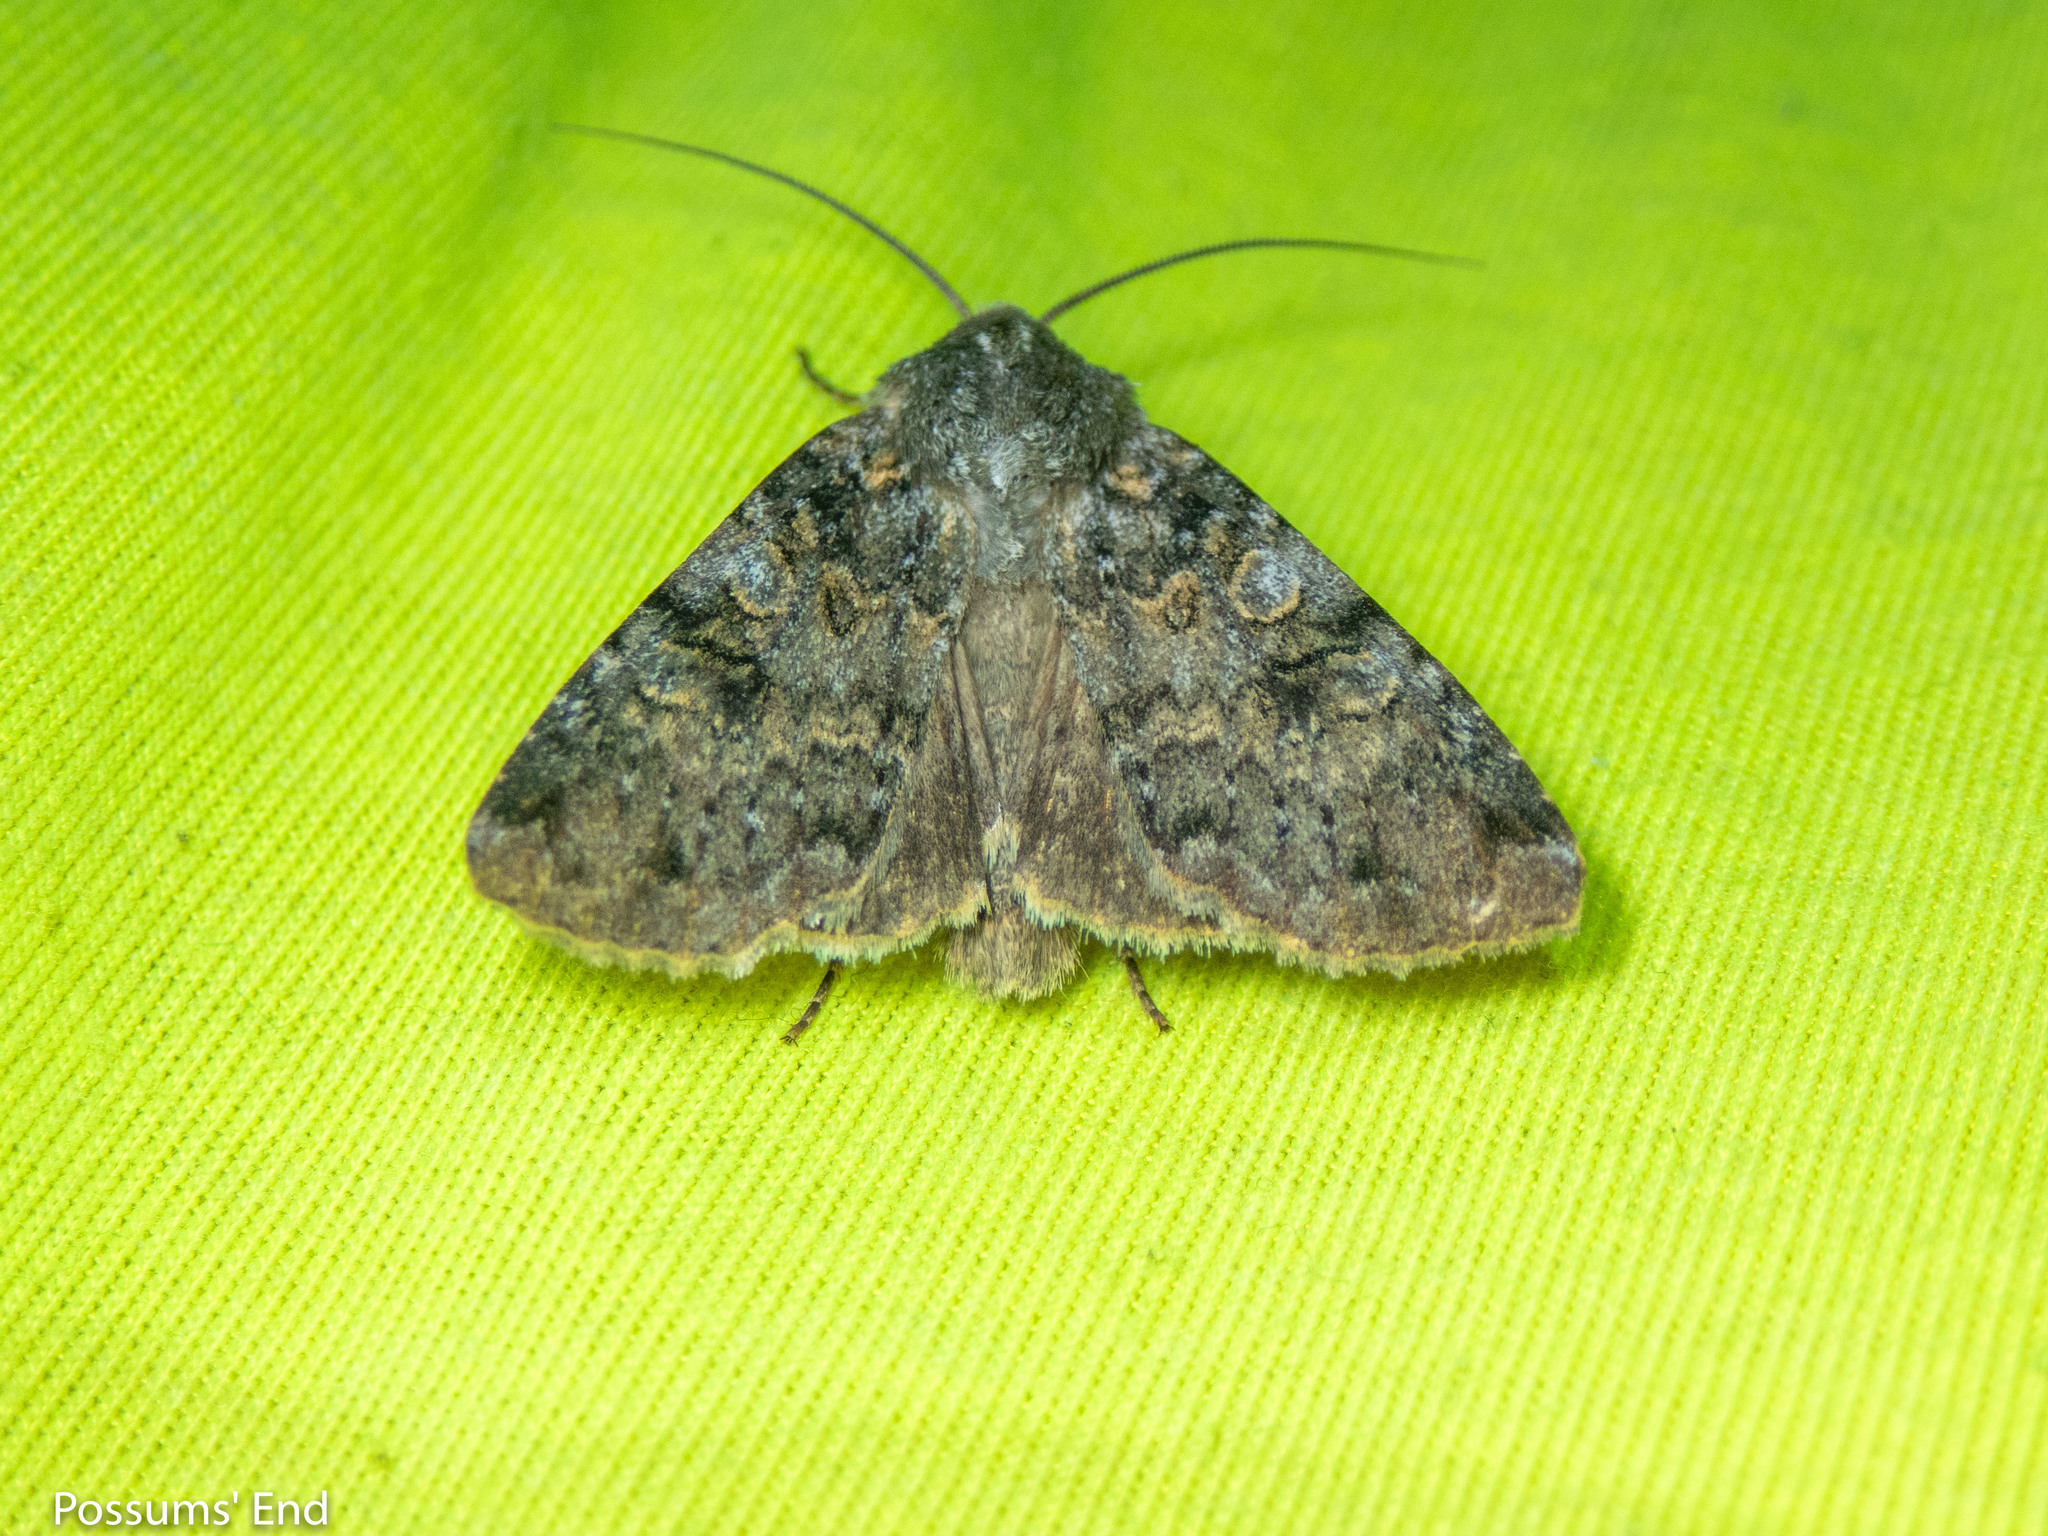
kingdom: Animalia
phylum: Arthropoda
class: Insecta
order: Lepidoptera
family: Noctuidae
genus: Ichneutica
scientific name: Ichneutica
